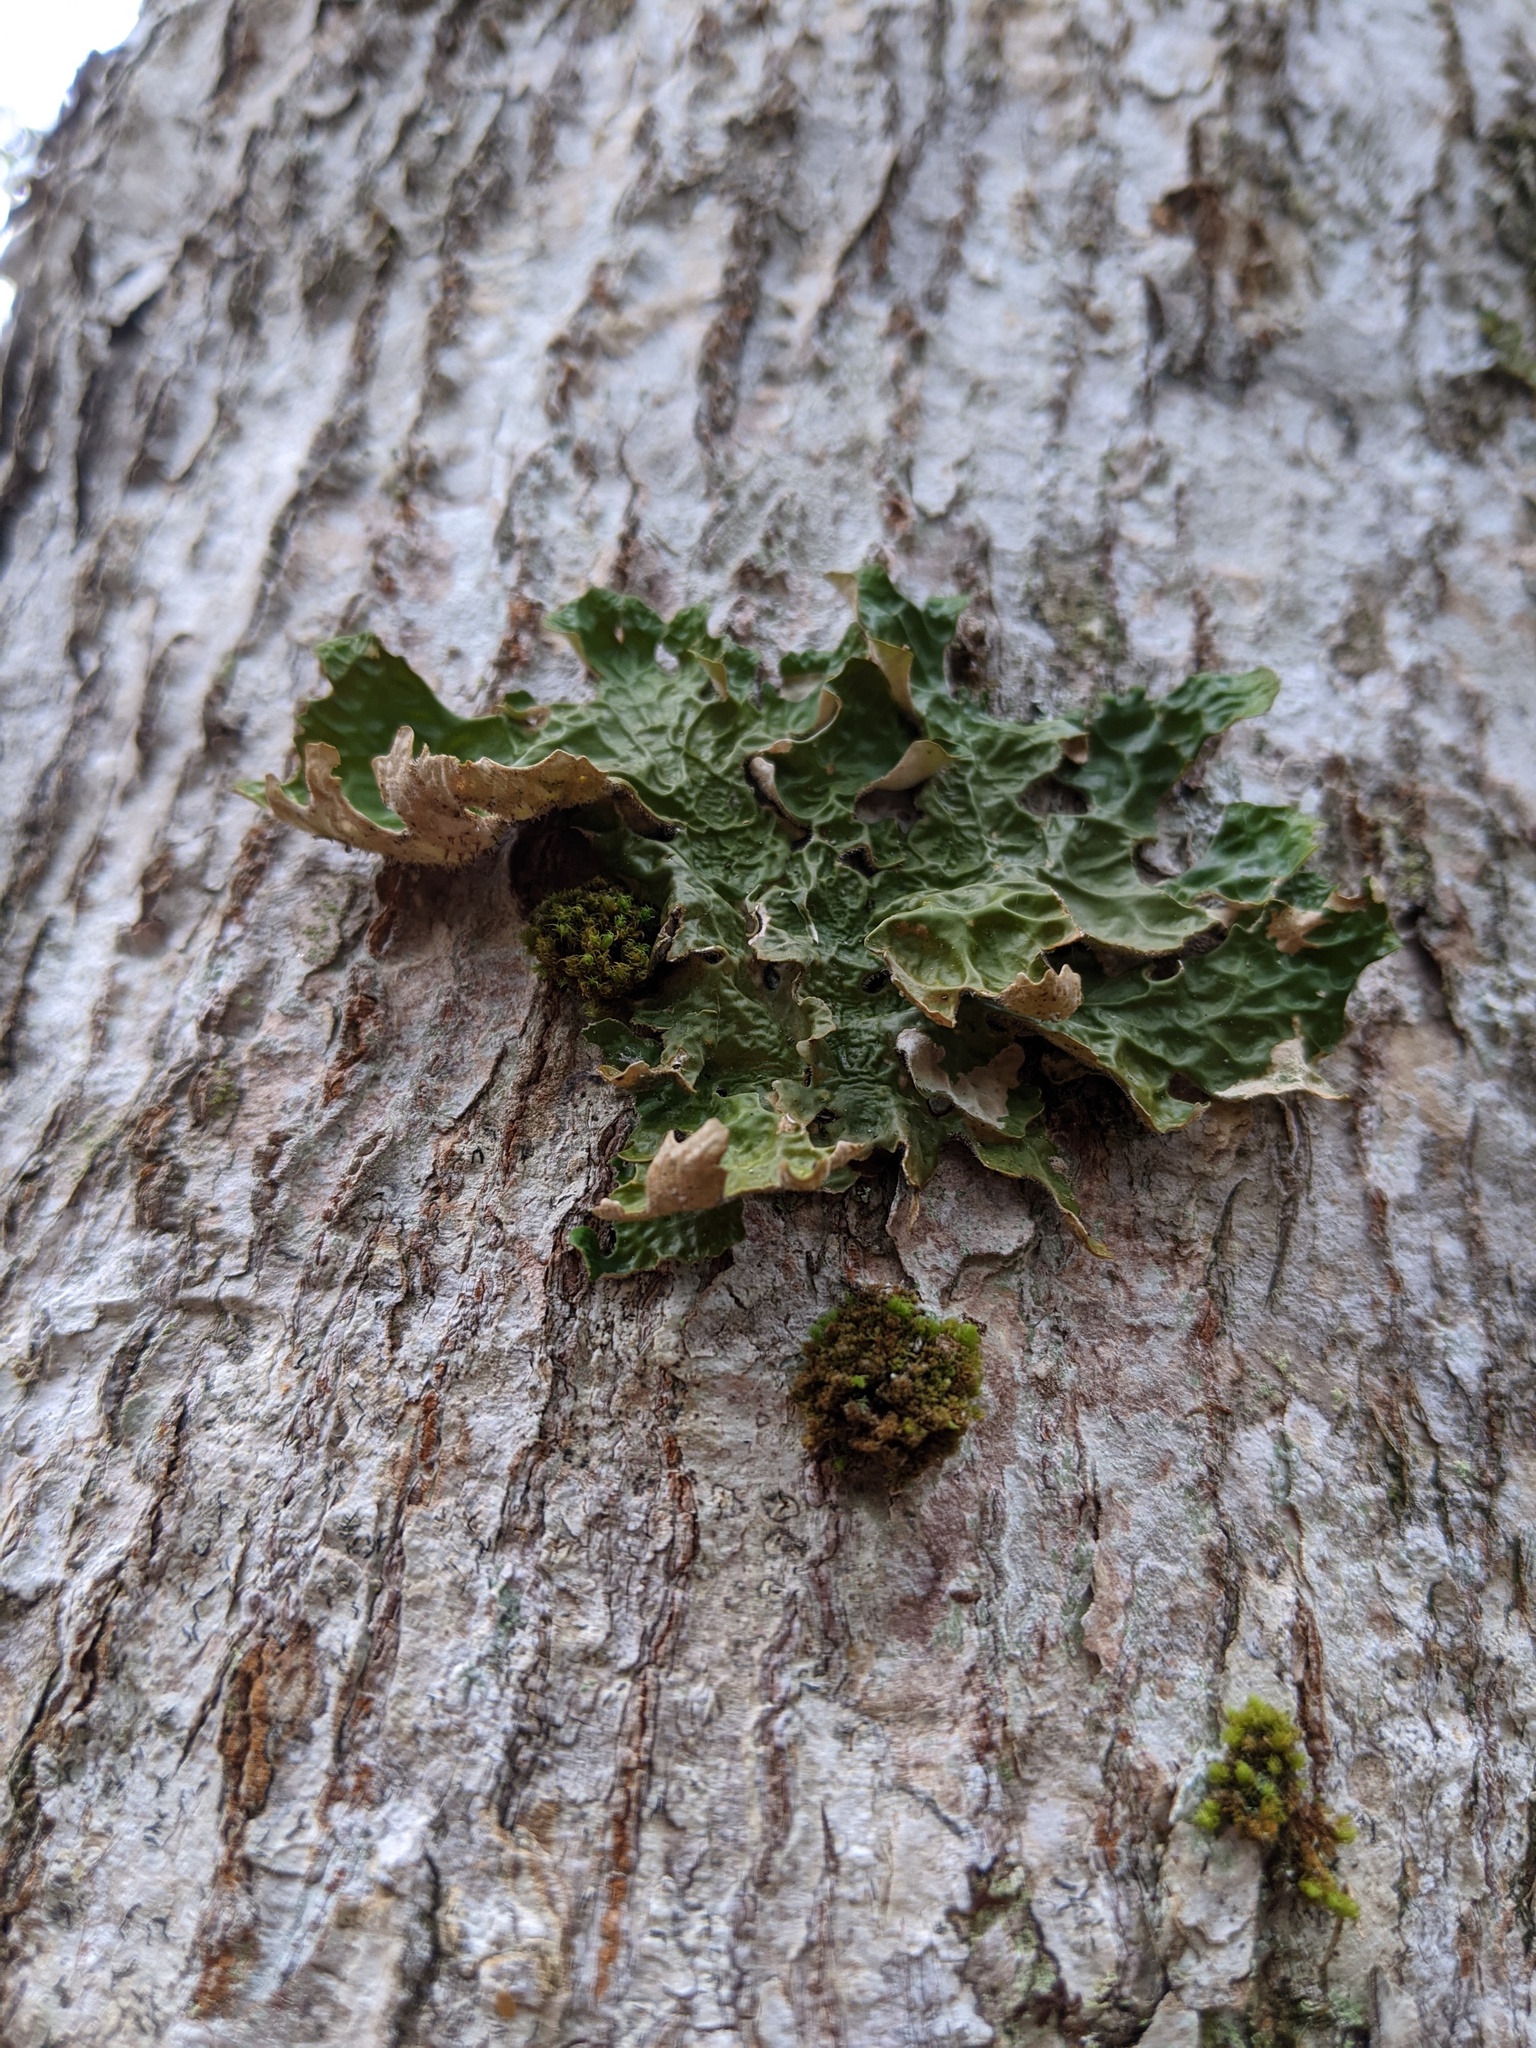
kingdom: Fungi
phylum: Ascomycota
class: Lecanoromycetes
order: Peltigerales
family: Lobariaceae
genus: Lobaria
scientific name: Lobaria pulmonaria
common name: Lungwort
